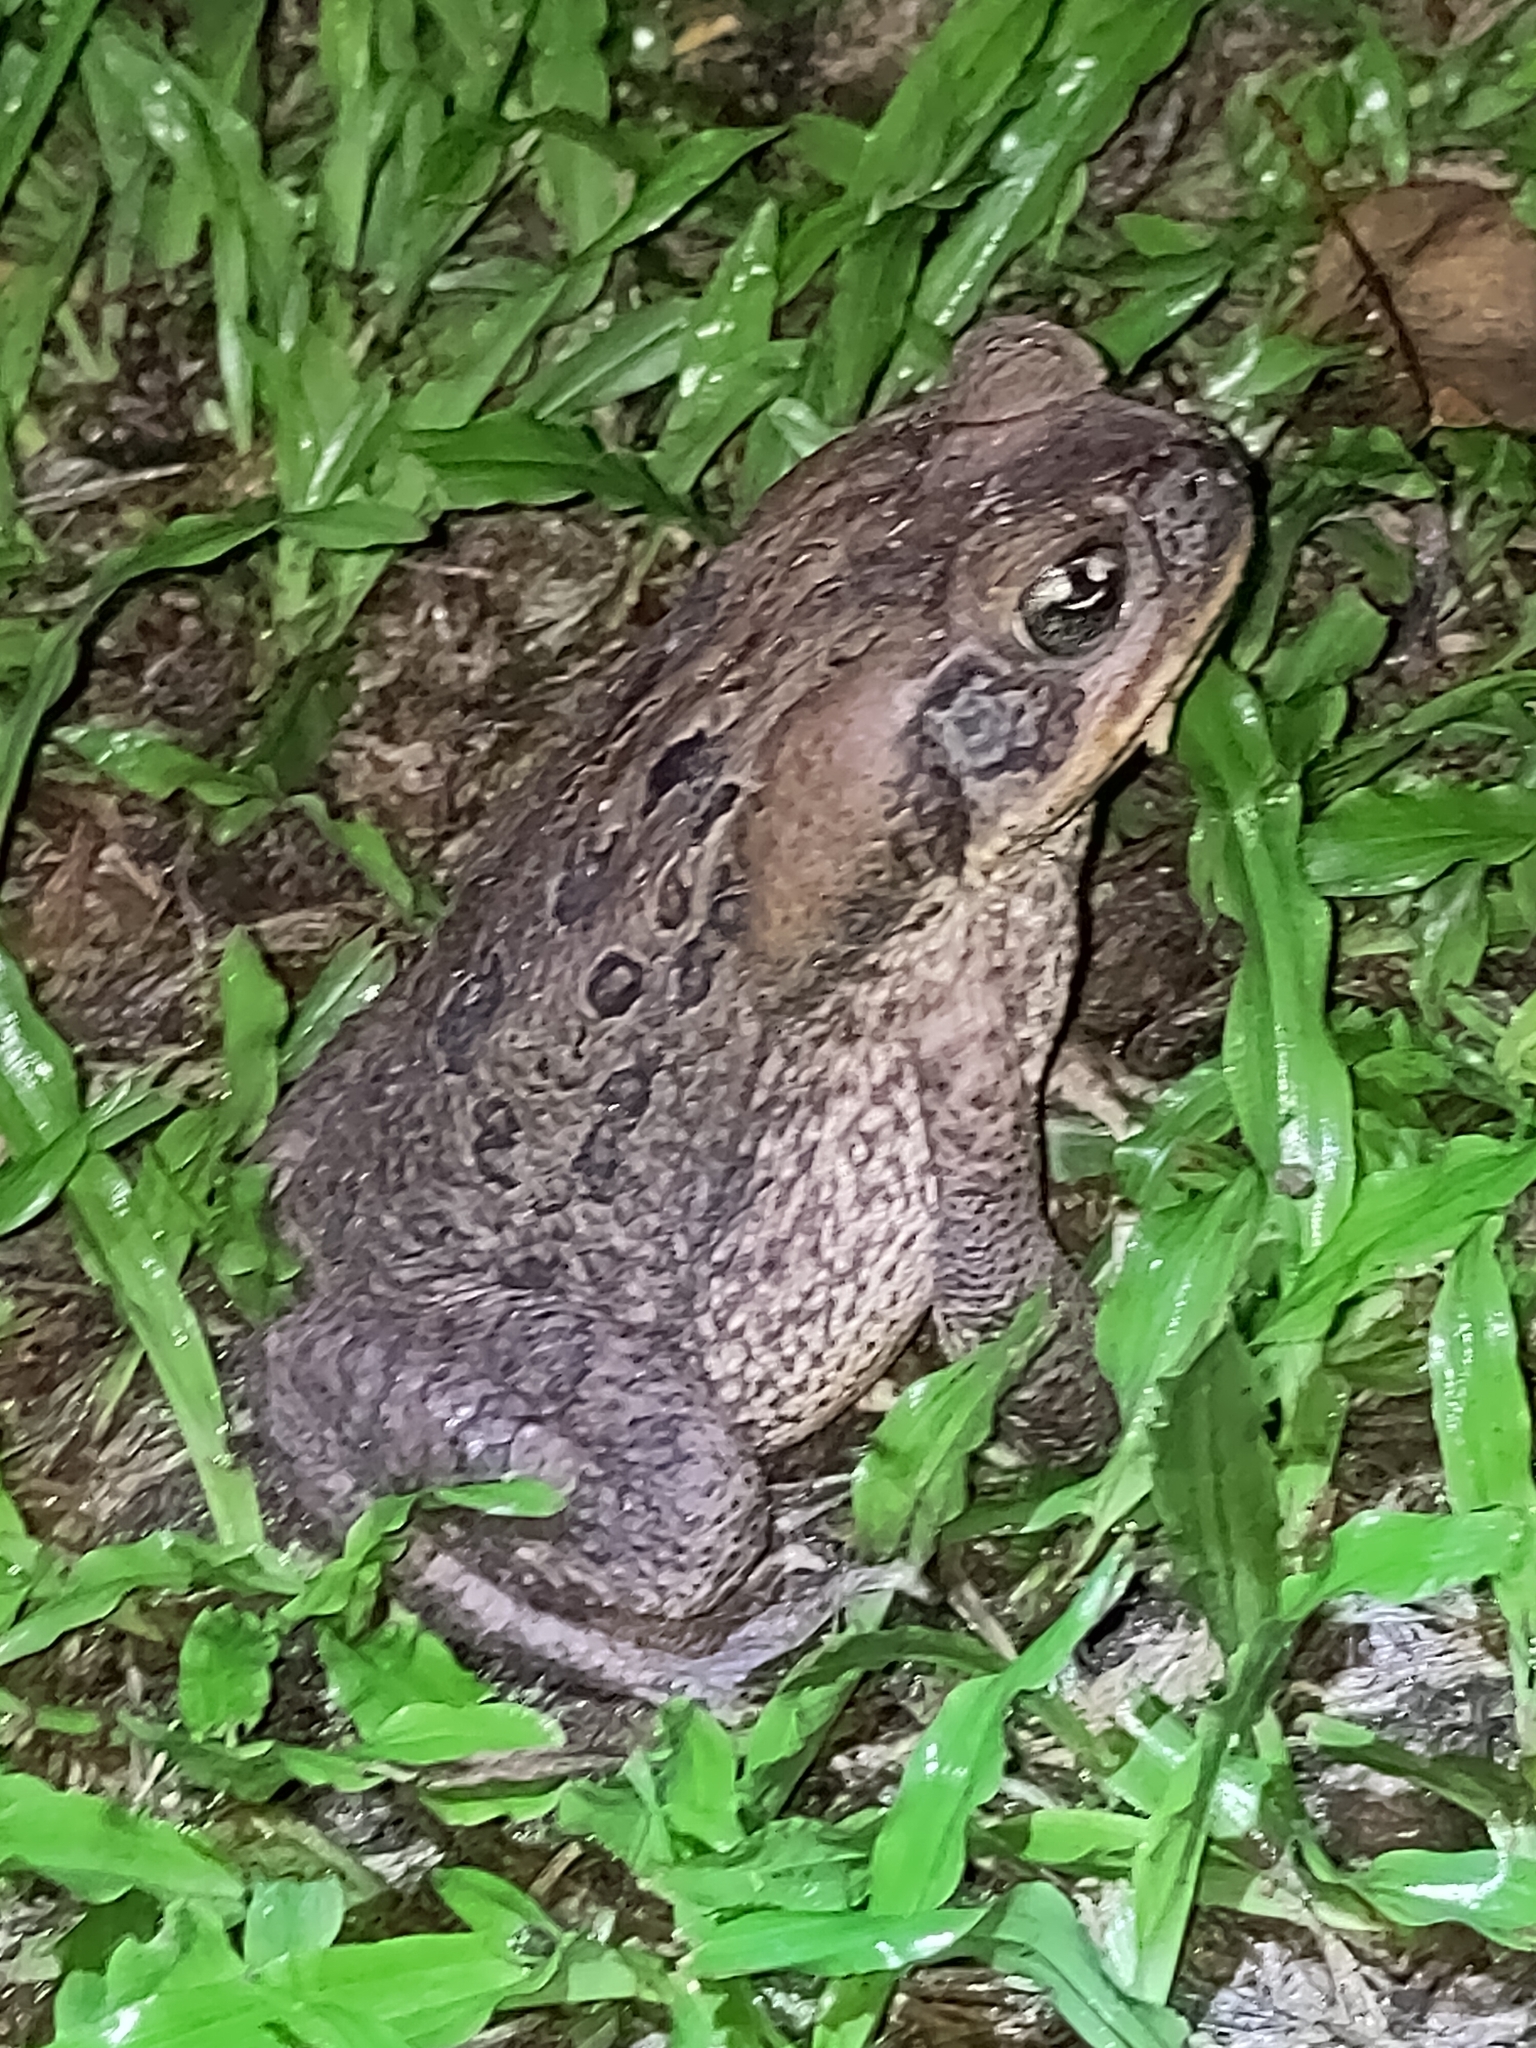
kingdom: Animalia
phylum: Chordata
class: Amphibia
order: Anura
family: Bufonidae
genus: Rhinella
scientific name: Rhinella marina
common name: Cane toad
